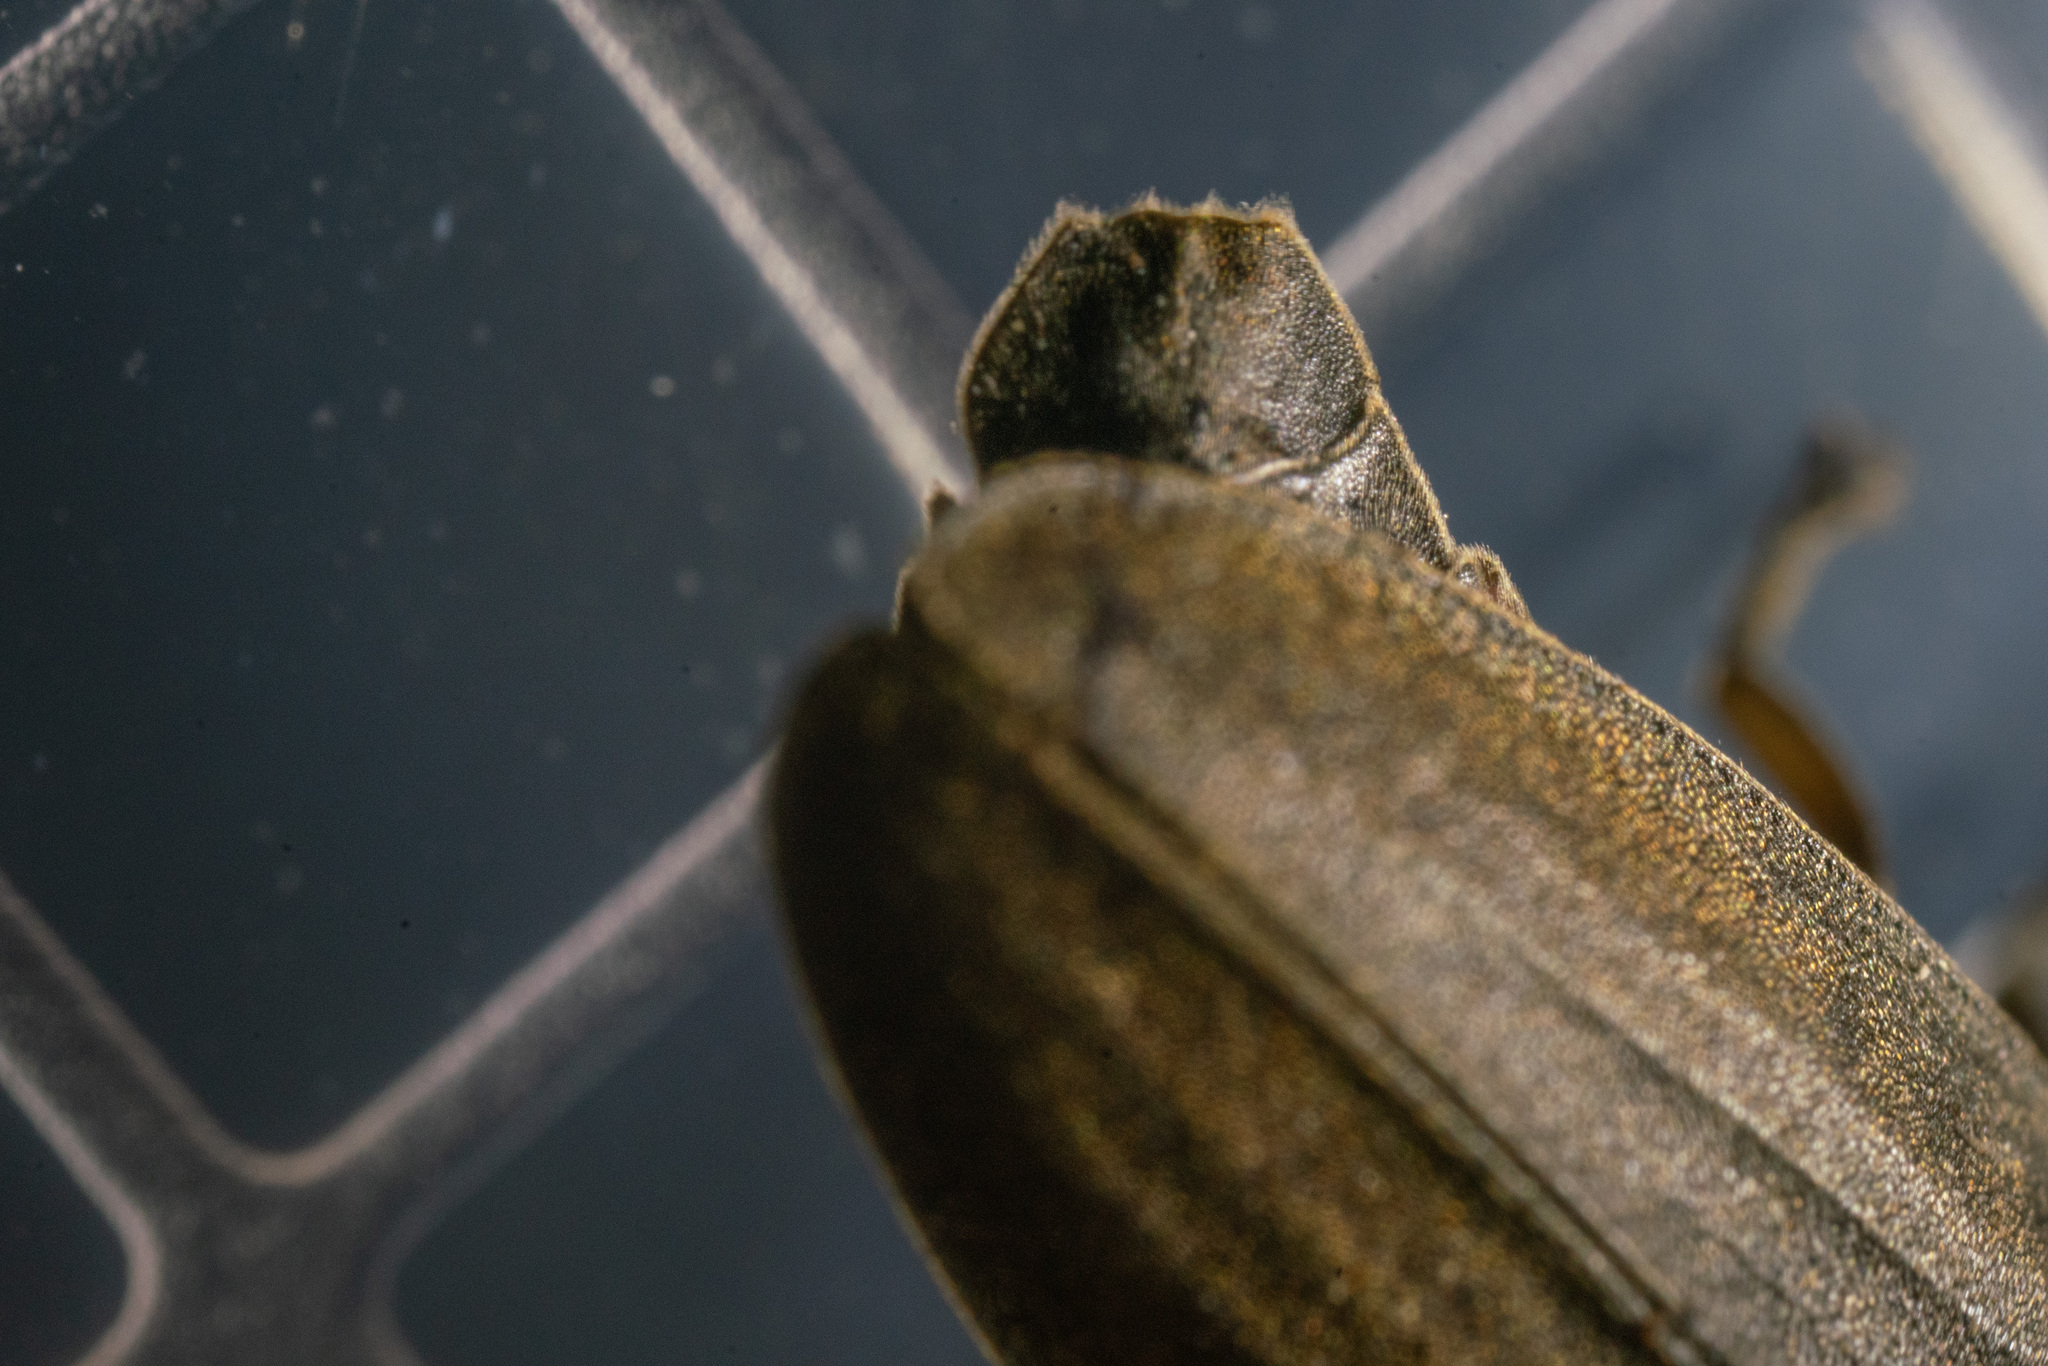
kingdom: Animalia
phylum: Arthropoda
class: Insecta
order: Coleoptera
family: Lampyridae
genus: Photinus
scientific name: Photinus corrusca
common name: Winter firefly
